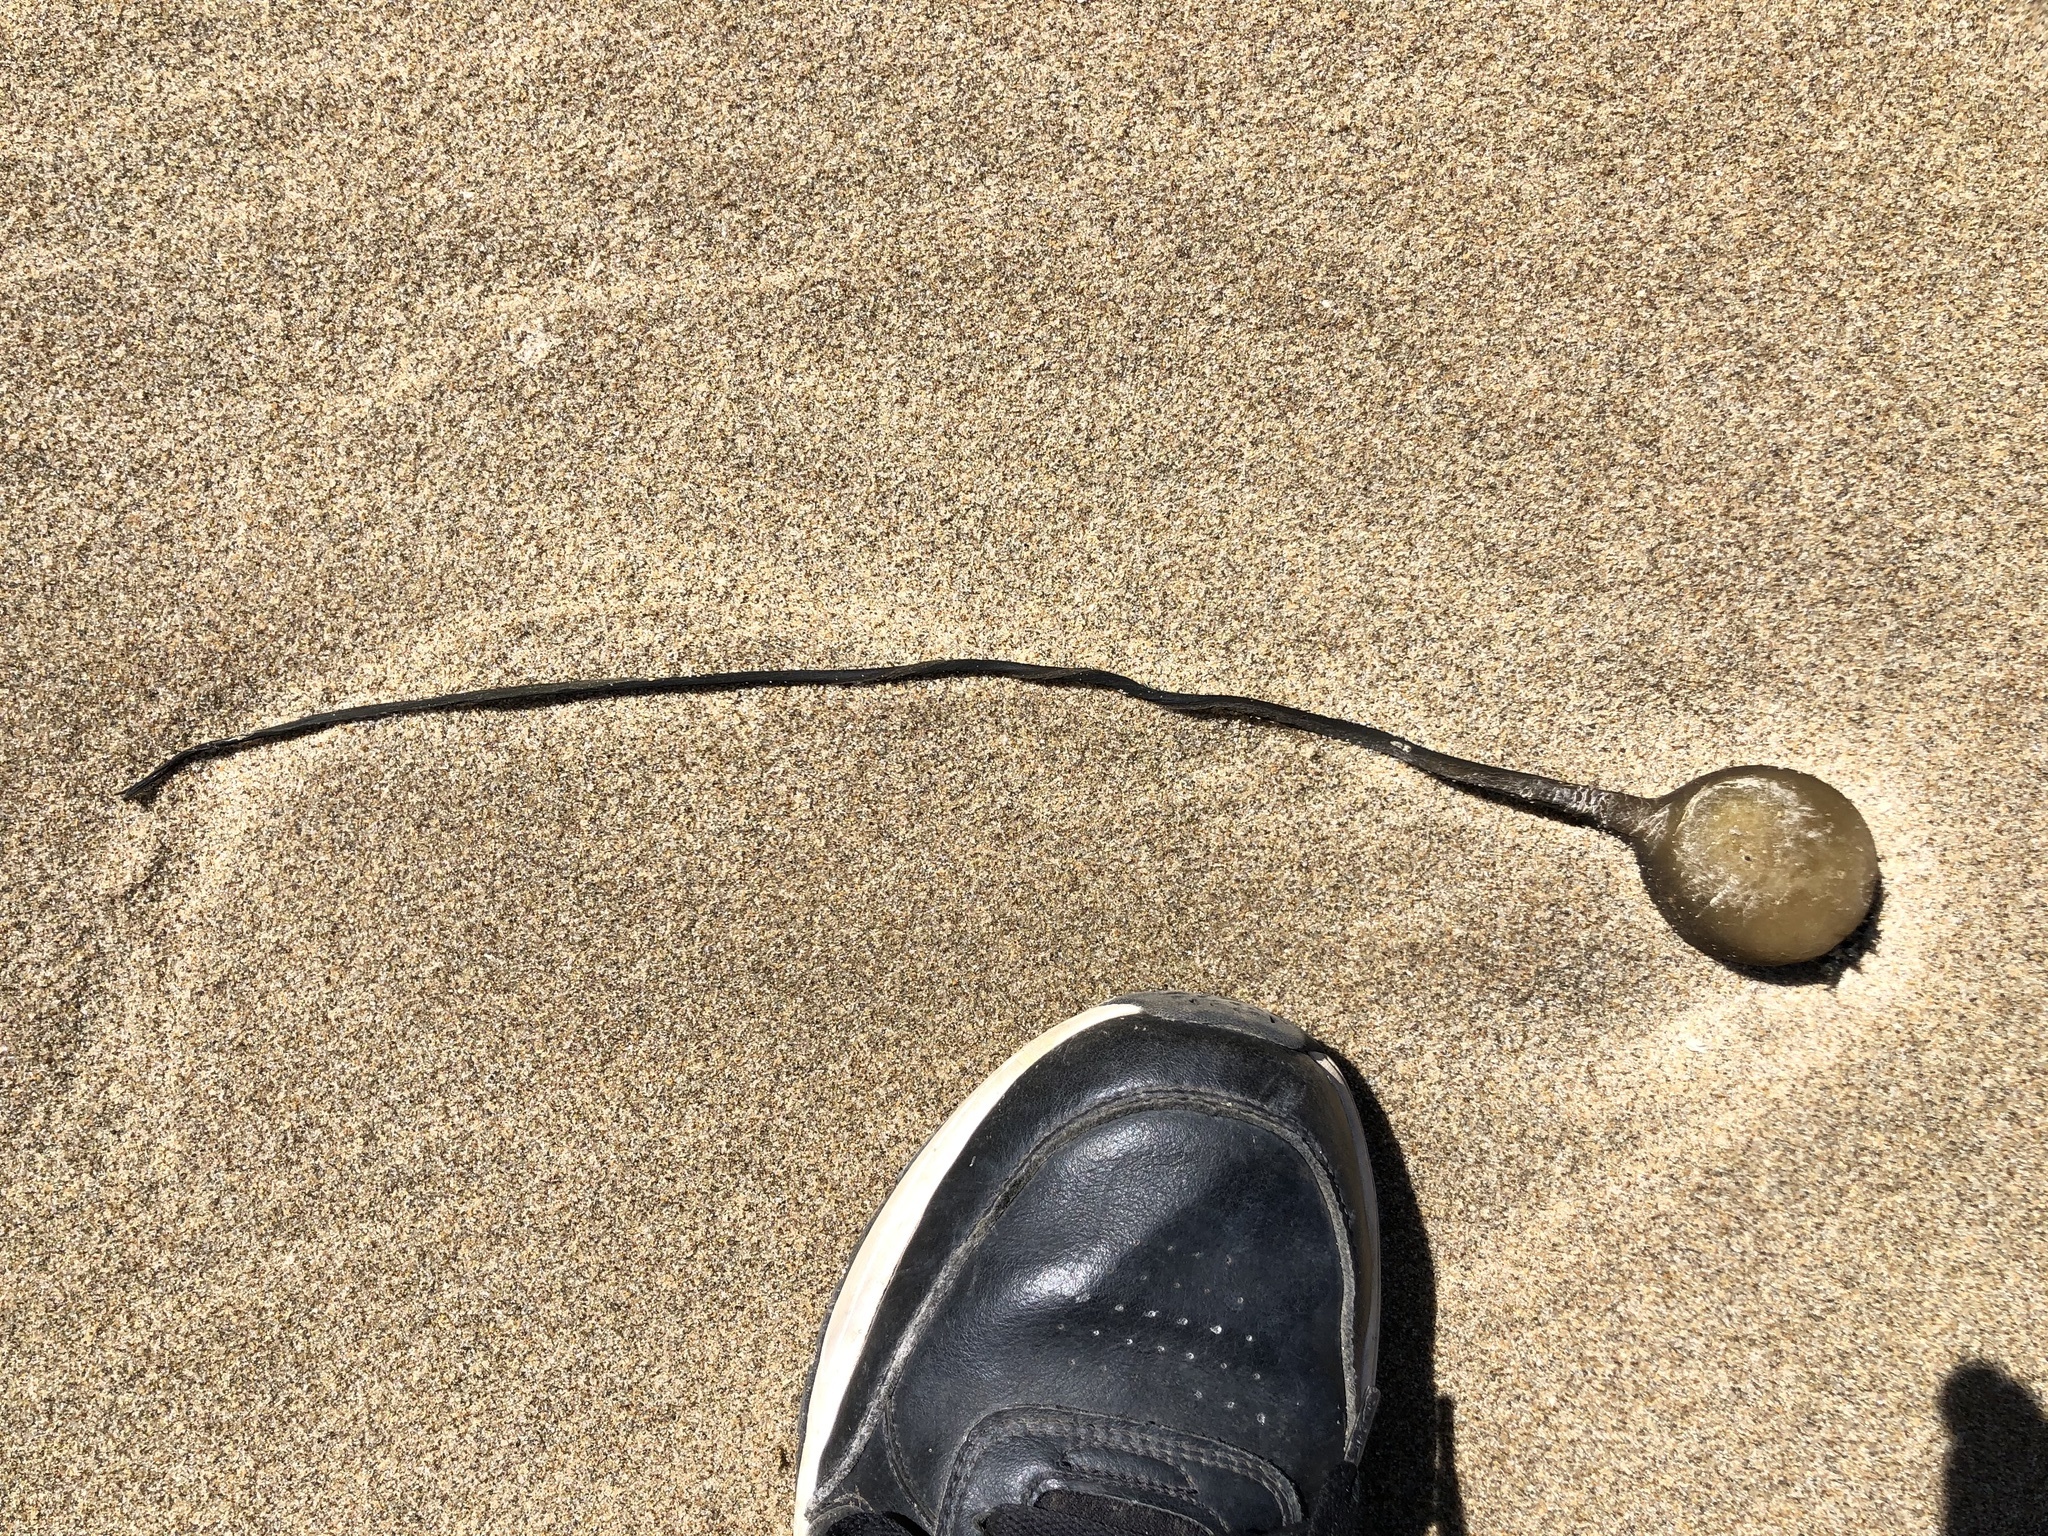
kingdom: Chromista
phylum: Ochrophyta
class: Phaeophyceae
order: Laminariales
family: Laminariaceae
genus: Nereocystis
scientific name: Nereocystis luetkeana
